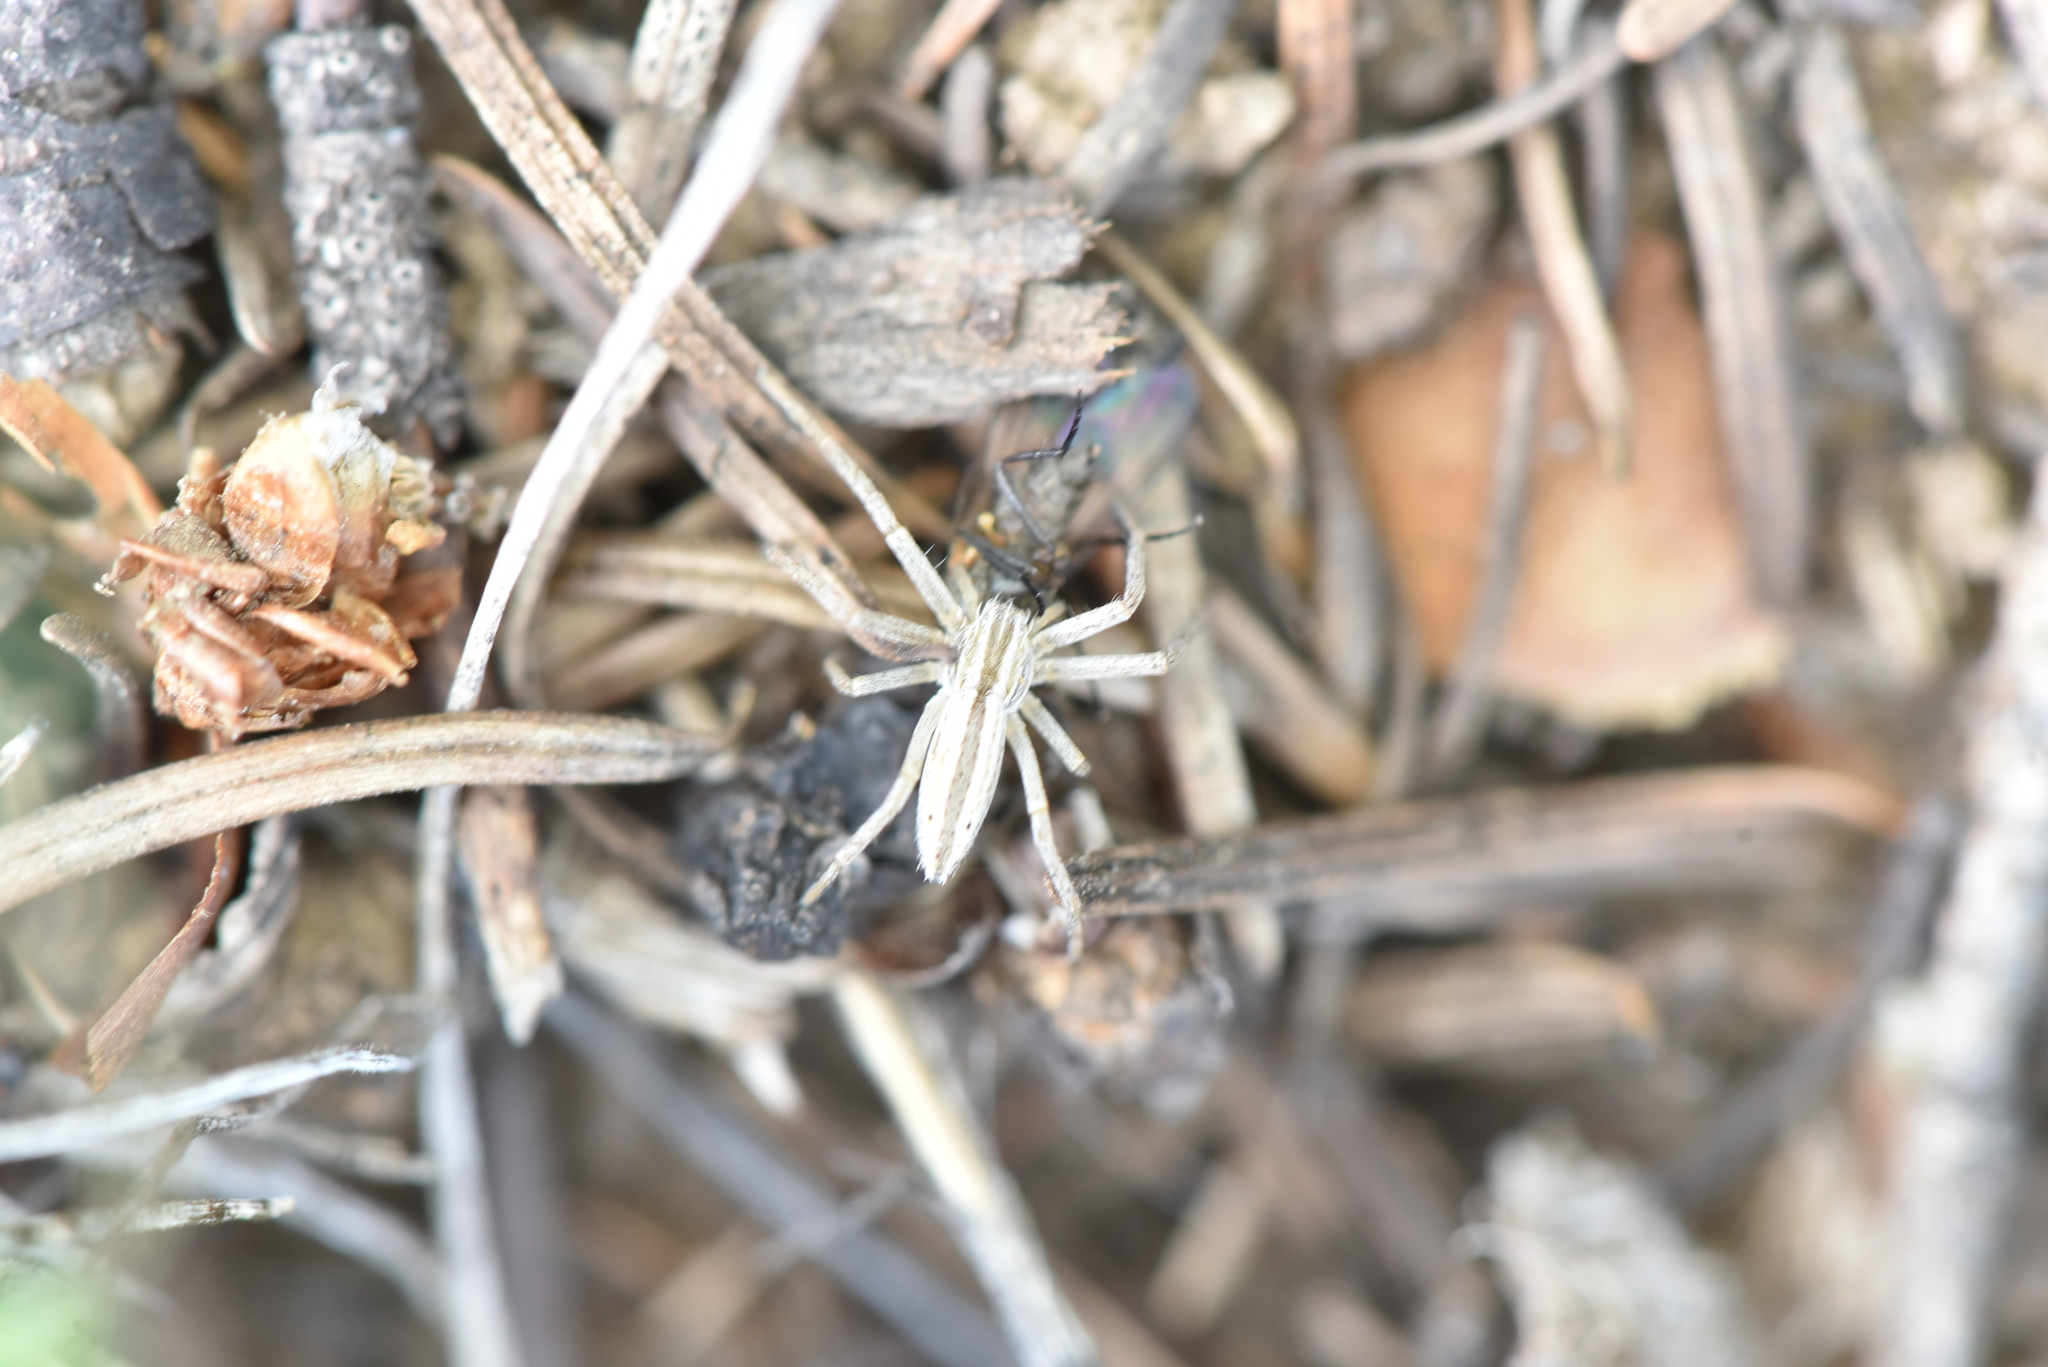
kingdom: Animalia
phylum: Arthropoda
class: Arachnida
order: Araneae
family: Philodromidae
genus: Tibellus
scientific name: Tibellus oblongus
